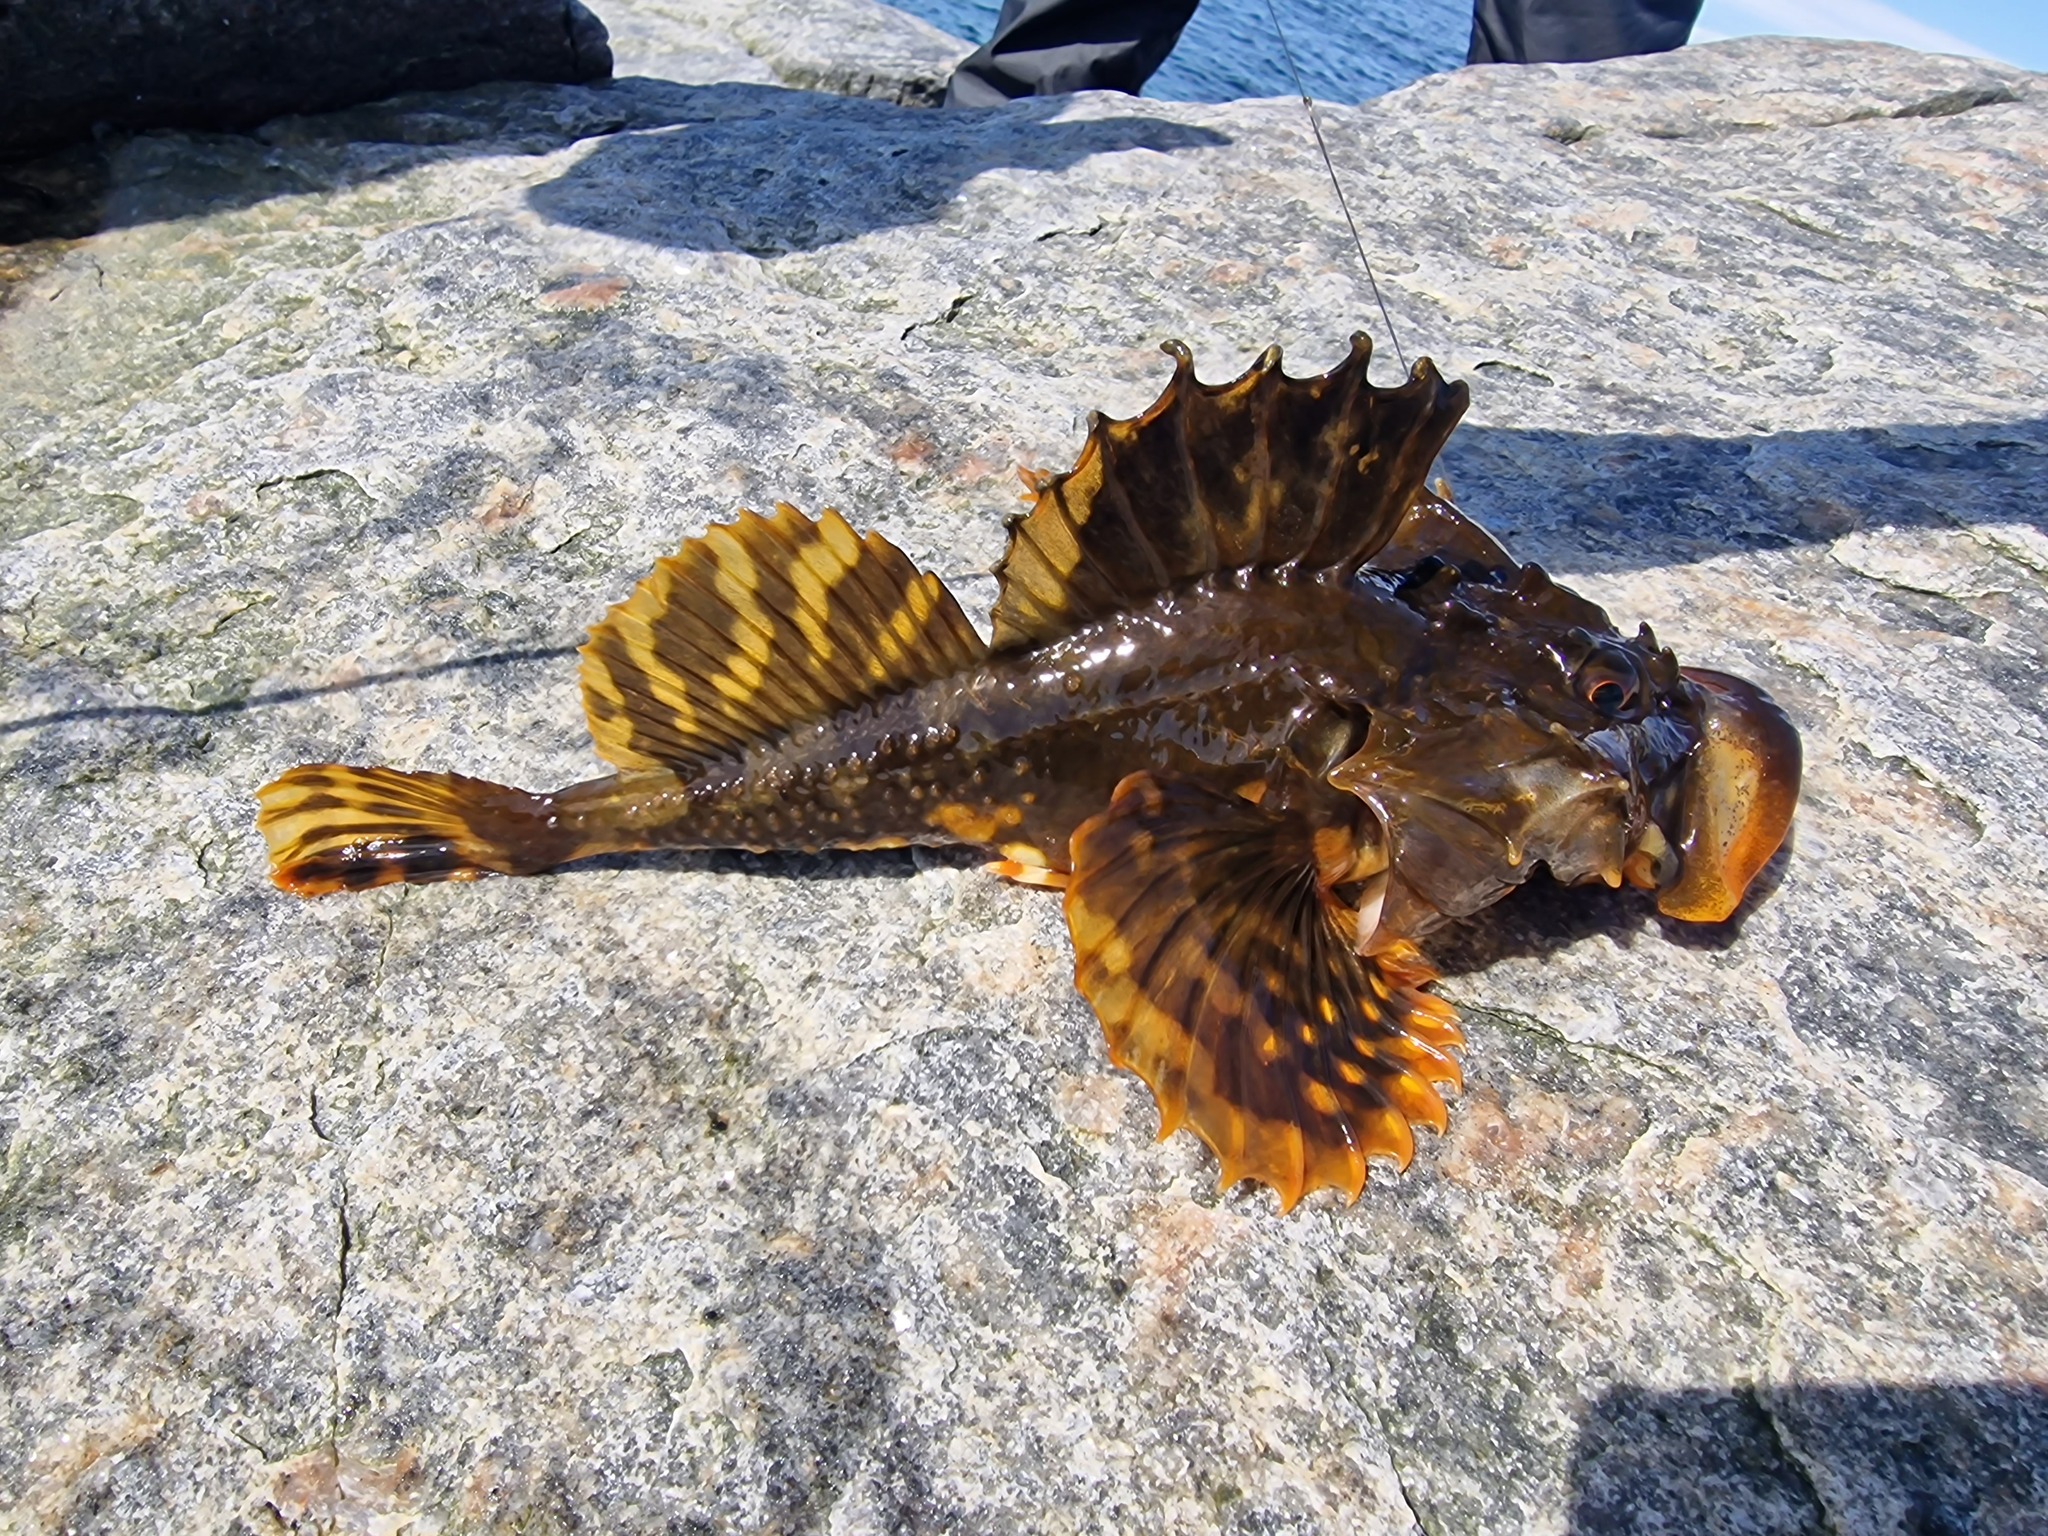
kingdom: Animalia
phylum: Chordata
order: Scorpaeniformes
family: Cottidae
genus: Myoxocephalus
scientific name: Myoxocephalus scorpius
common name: Shorthorn sculpin
